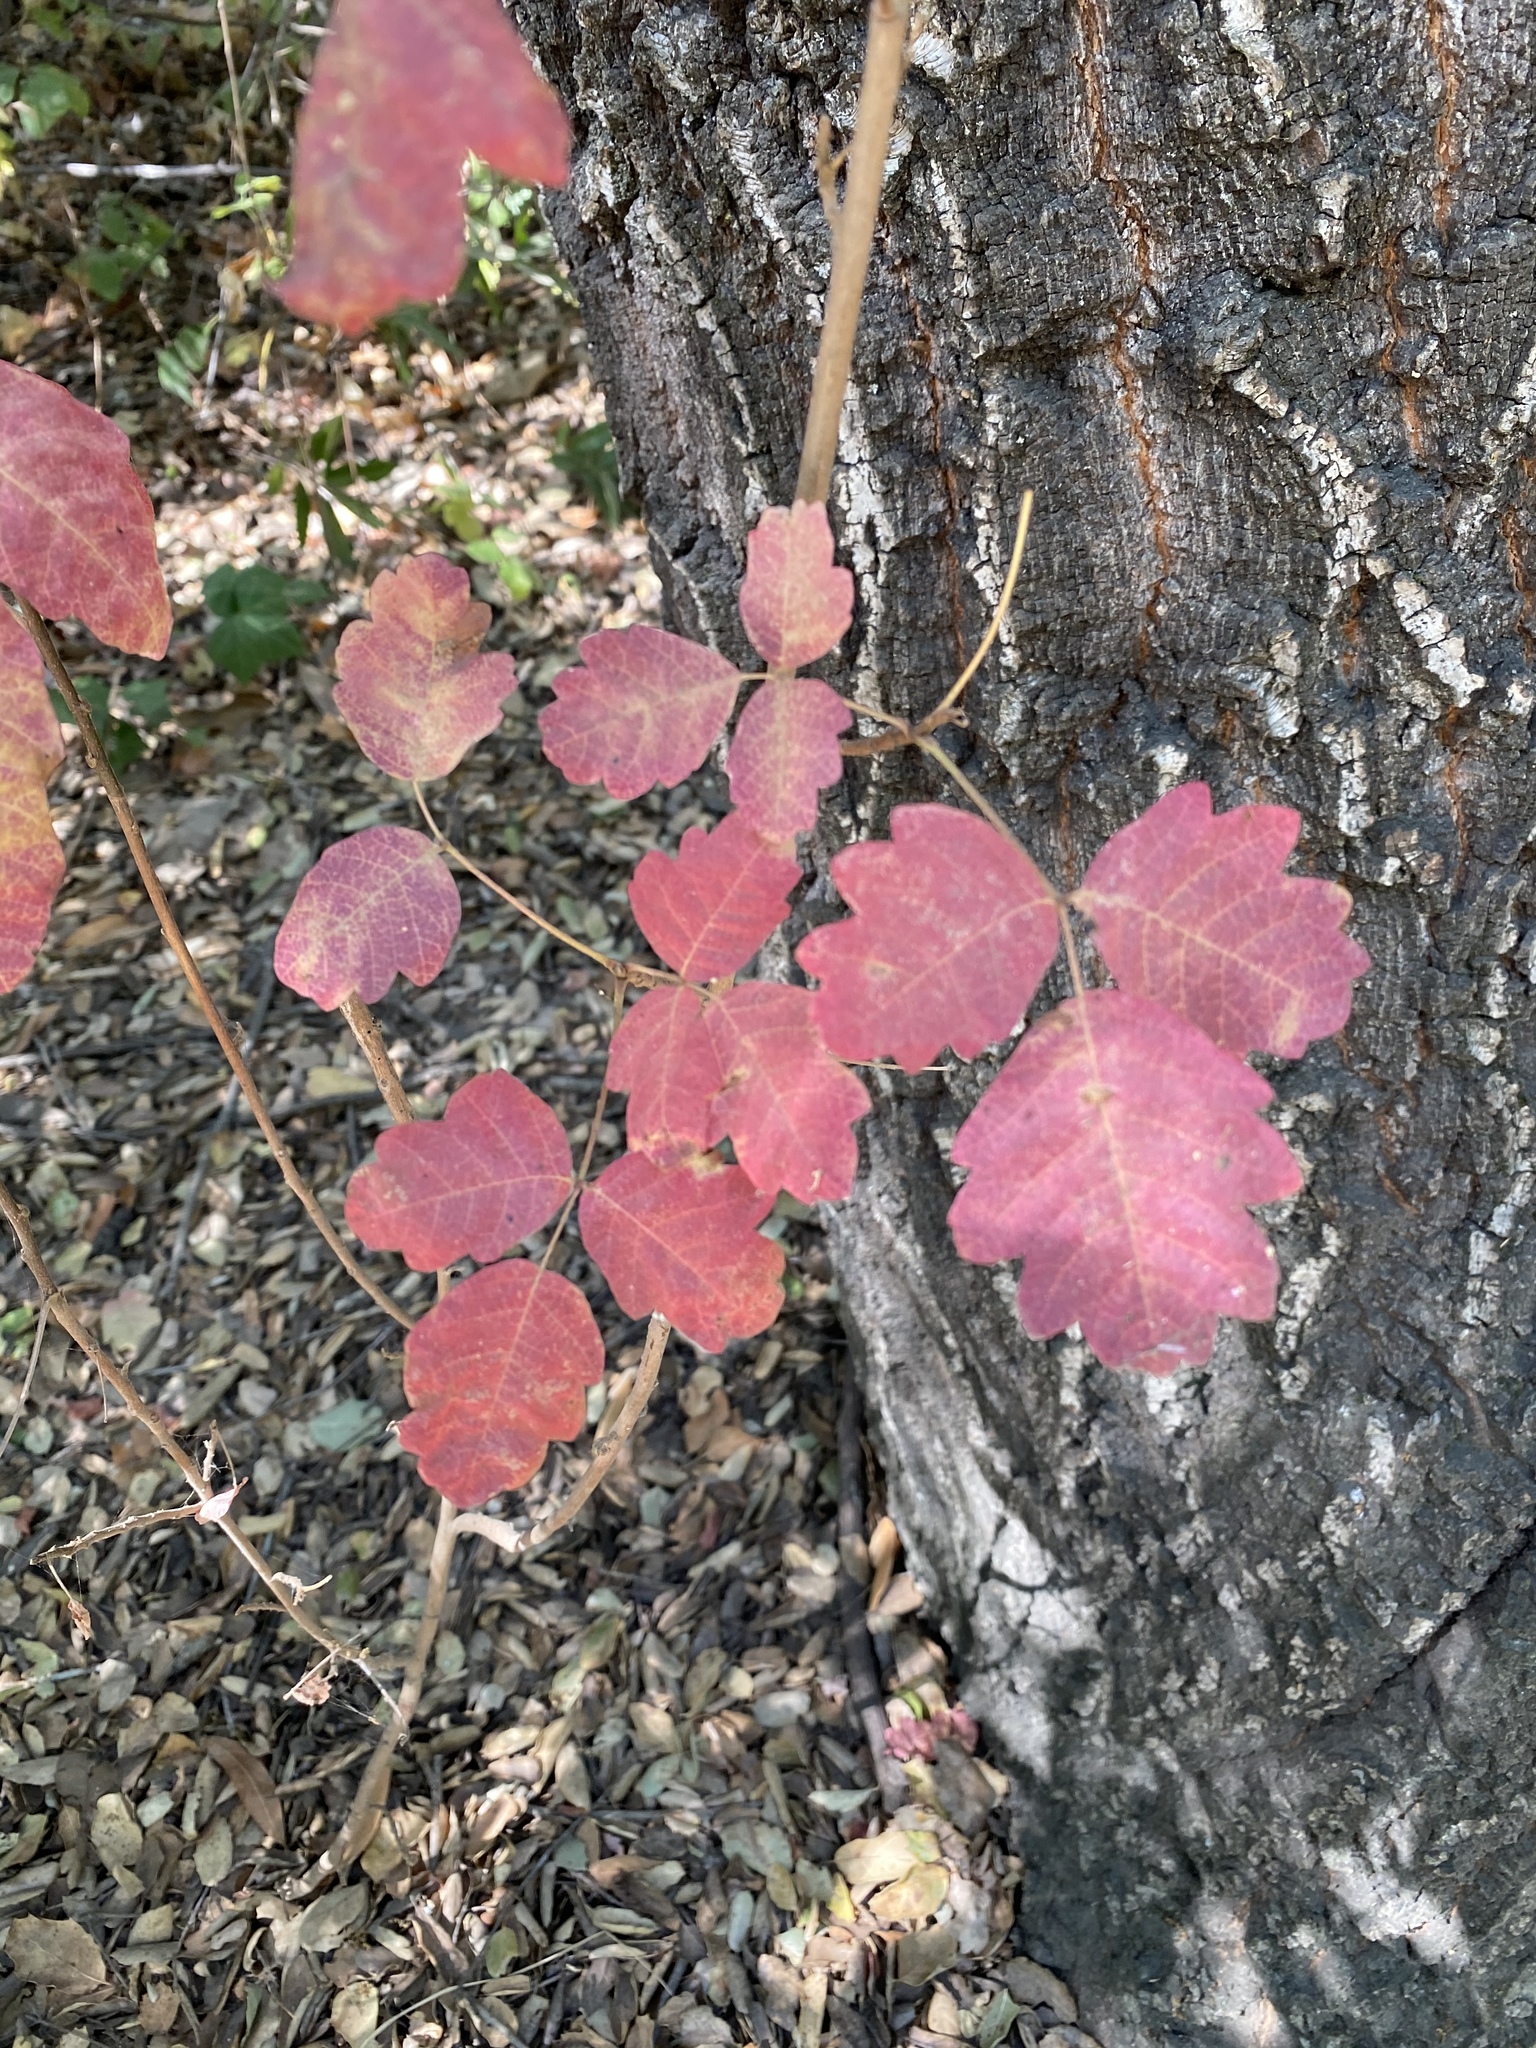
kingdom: Plantae
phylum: Tracheophyta
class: Magnoliopsida
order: Sapindales
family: Anacardiaceae
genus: Toxicodendron
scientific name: Toxicodendron diversilobum
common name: Pacific poison-oak
